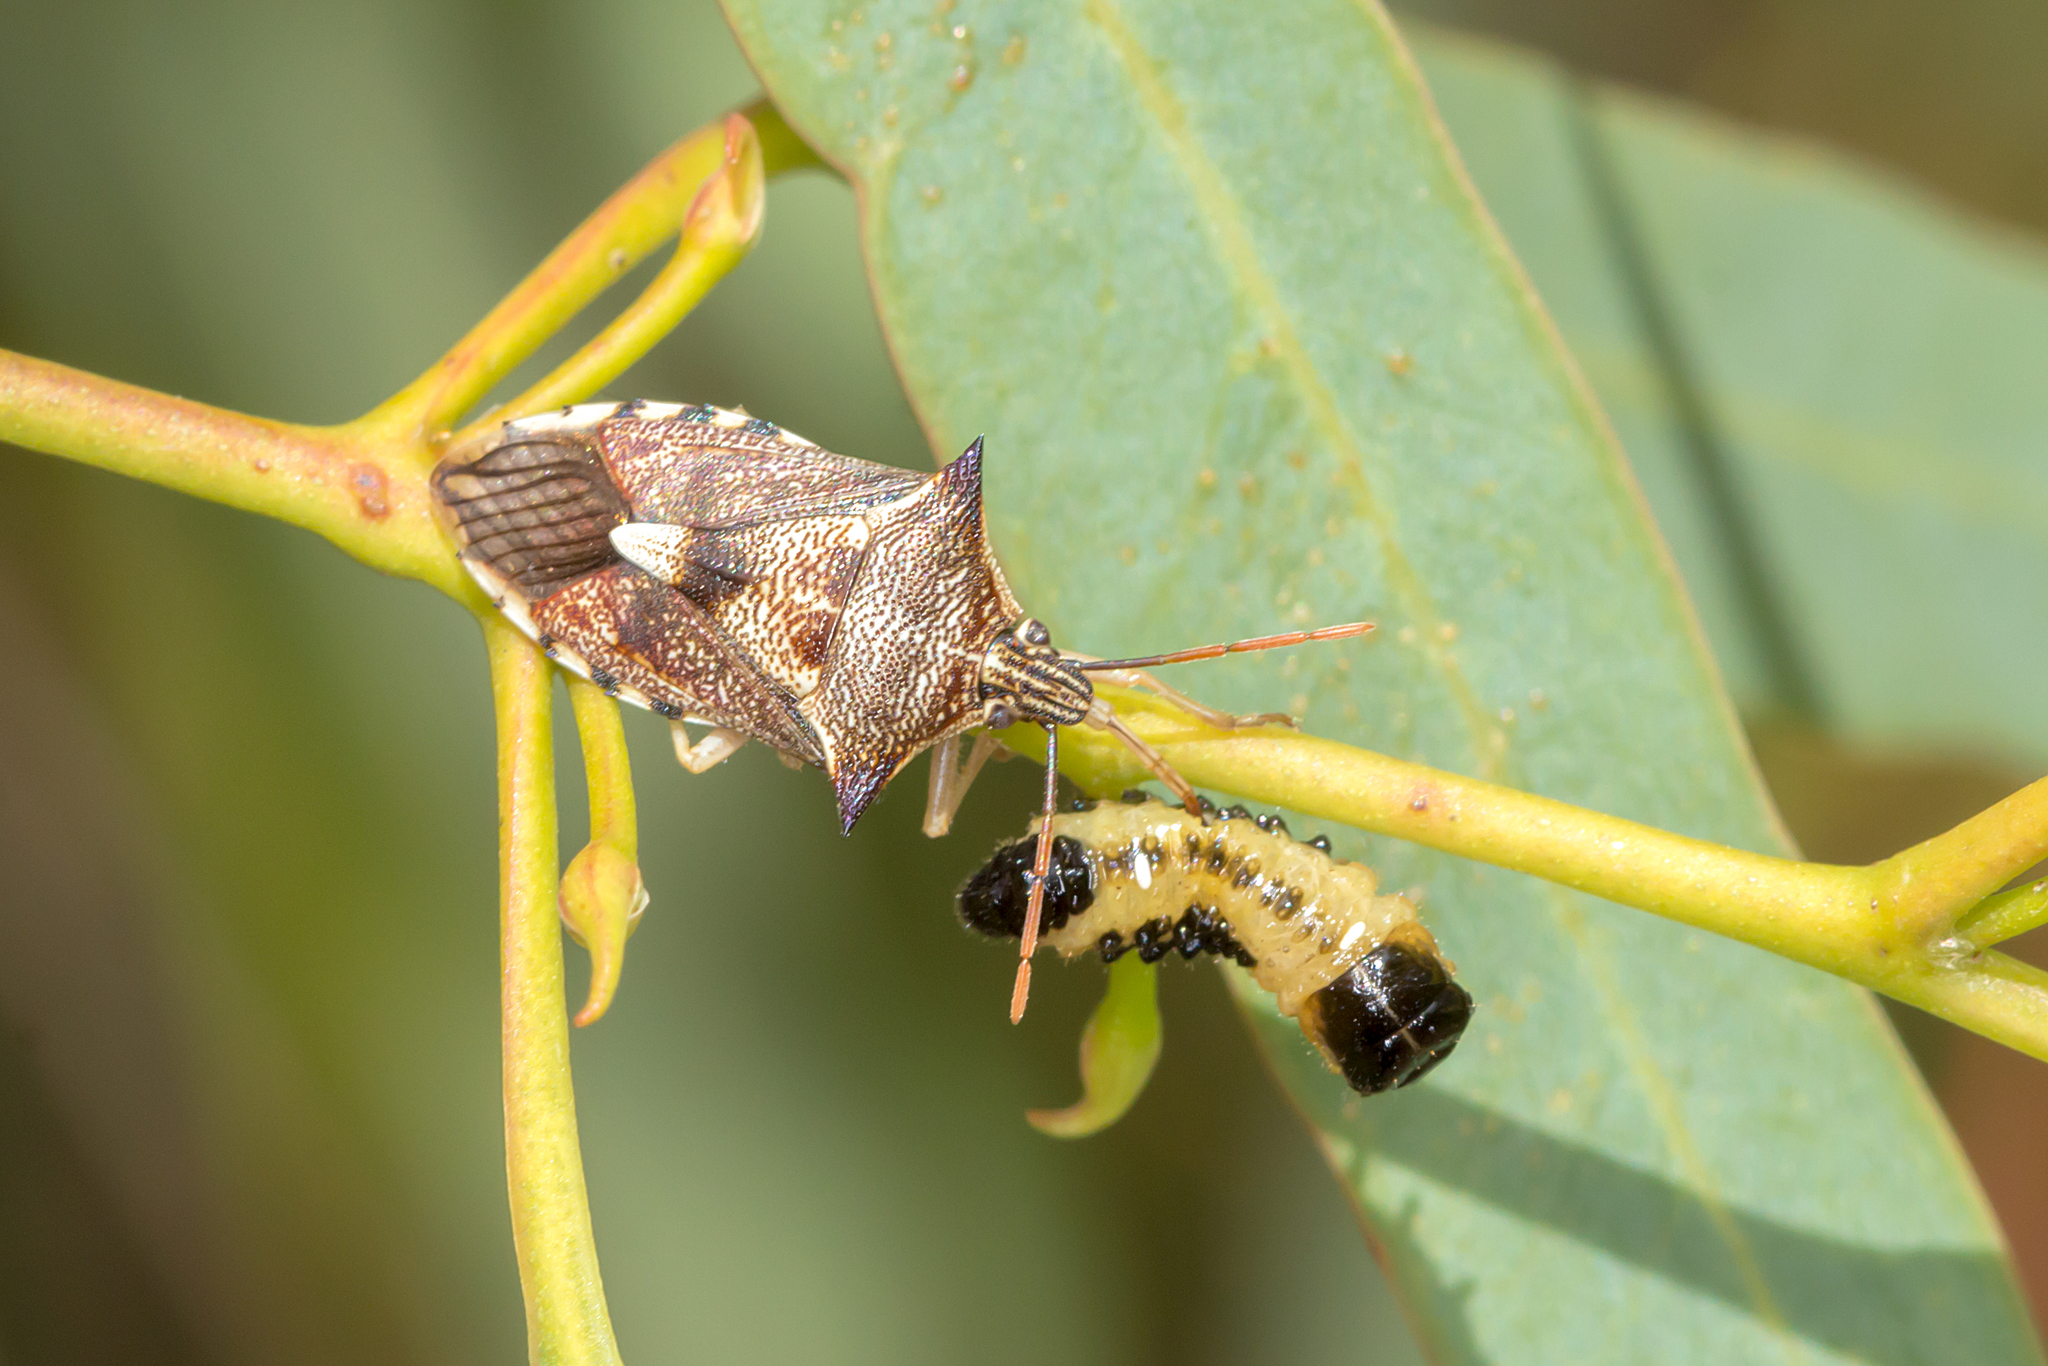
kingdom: Animalia
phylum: Arthropoda
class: Insecta
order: Hemiptera
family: Pentatomidae
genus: Oechalia
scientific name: Oechalia schellenbergii
